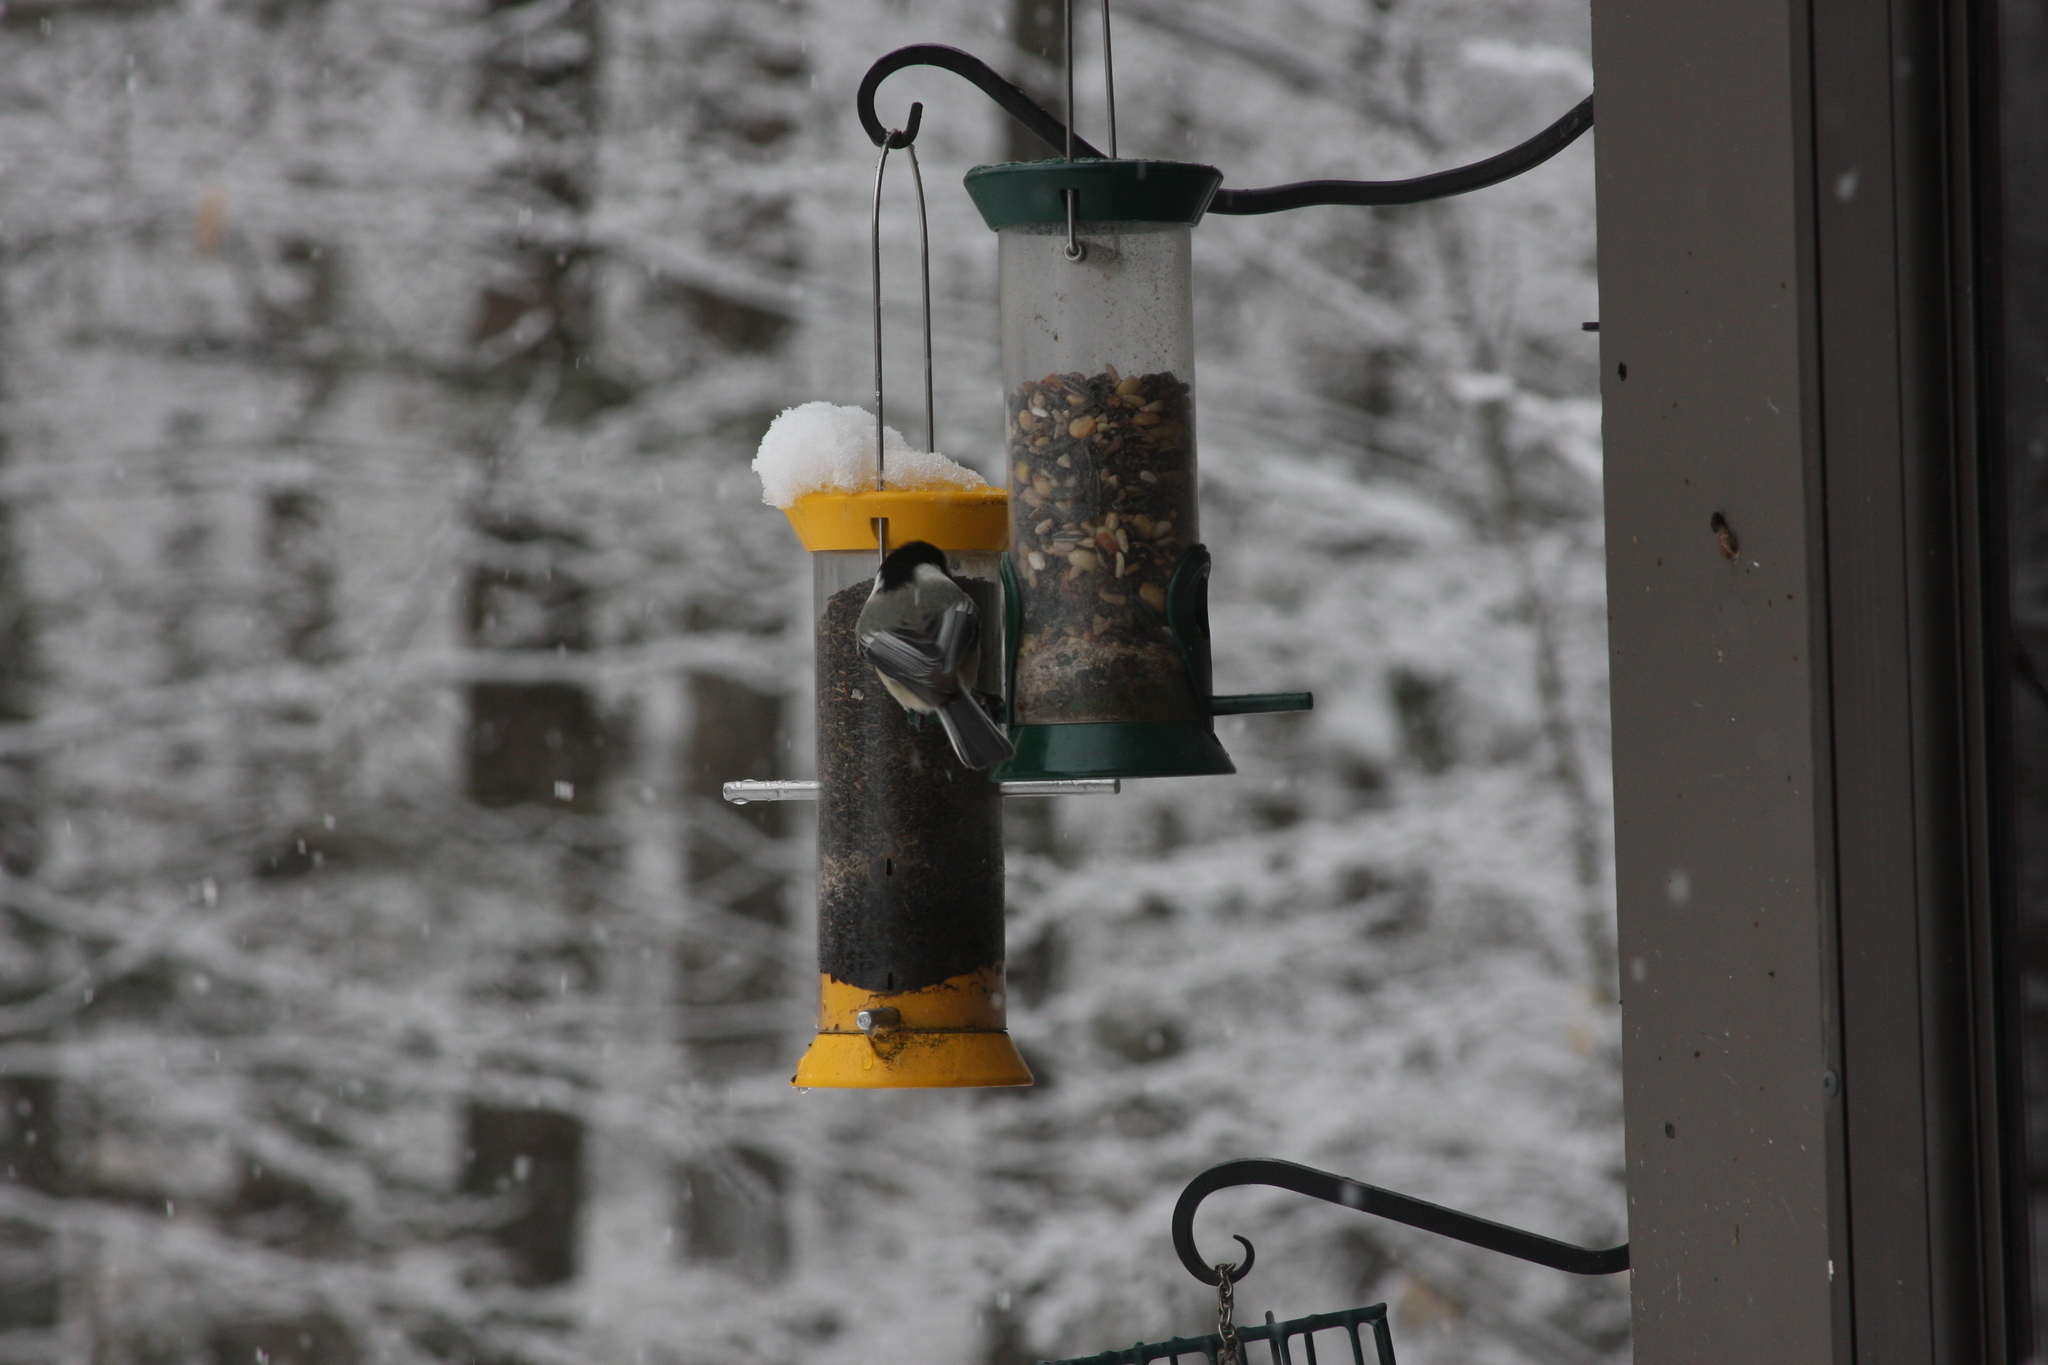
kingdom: Animalia
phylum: Chordata
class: Aves
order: Passeriformes
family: Paridae
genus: Poecile
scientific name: Poecile atricapillus
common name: Black-capped chickadee
